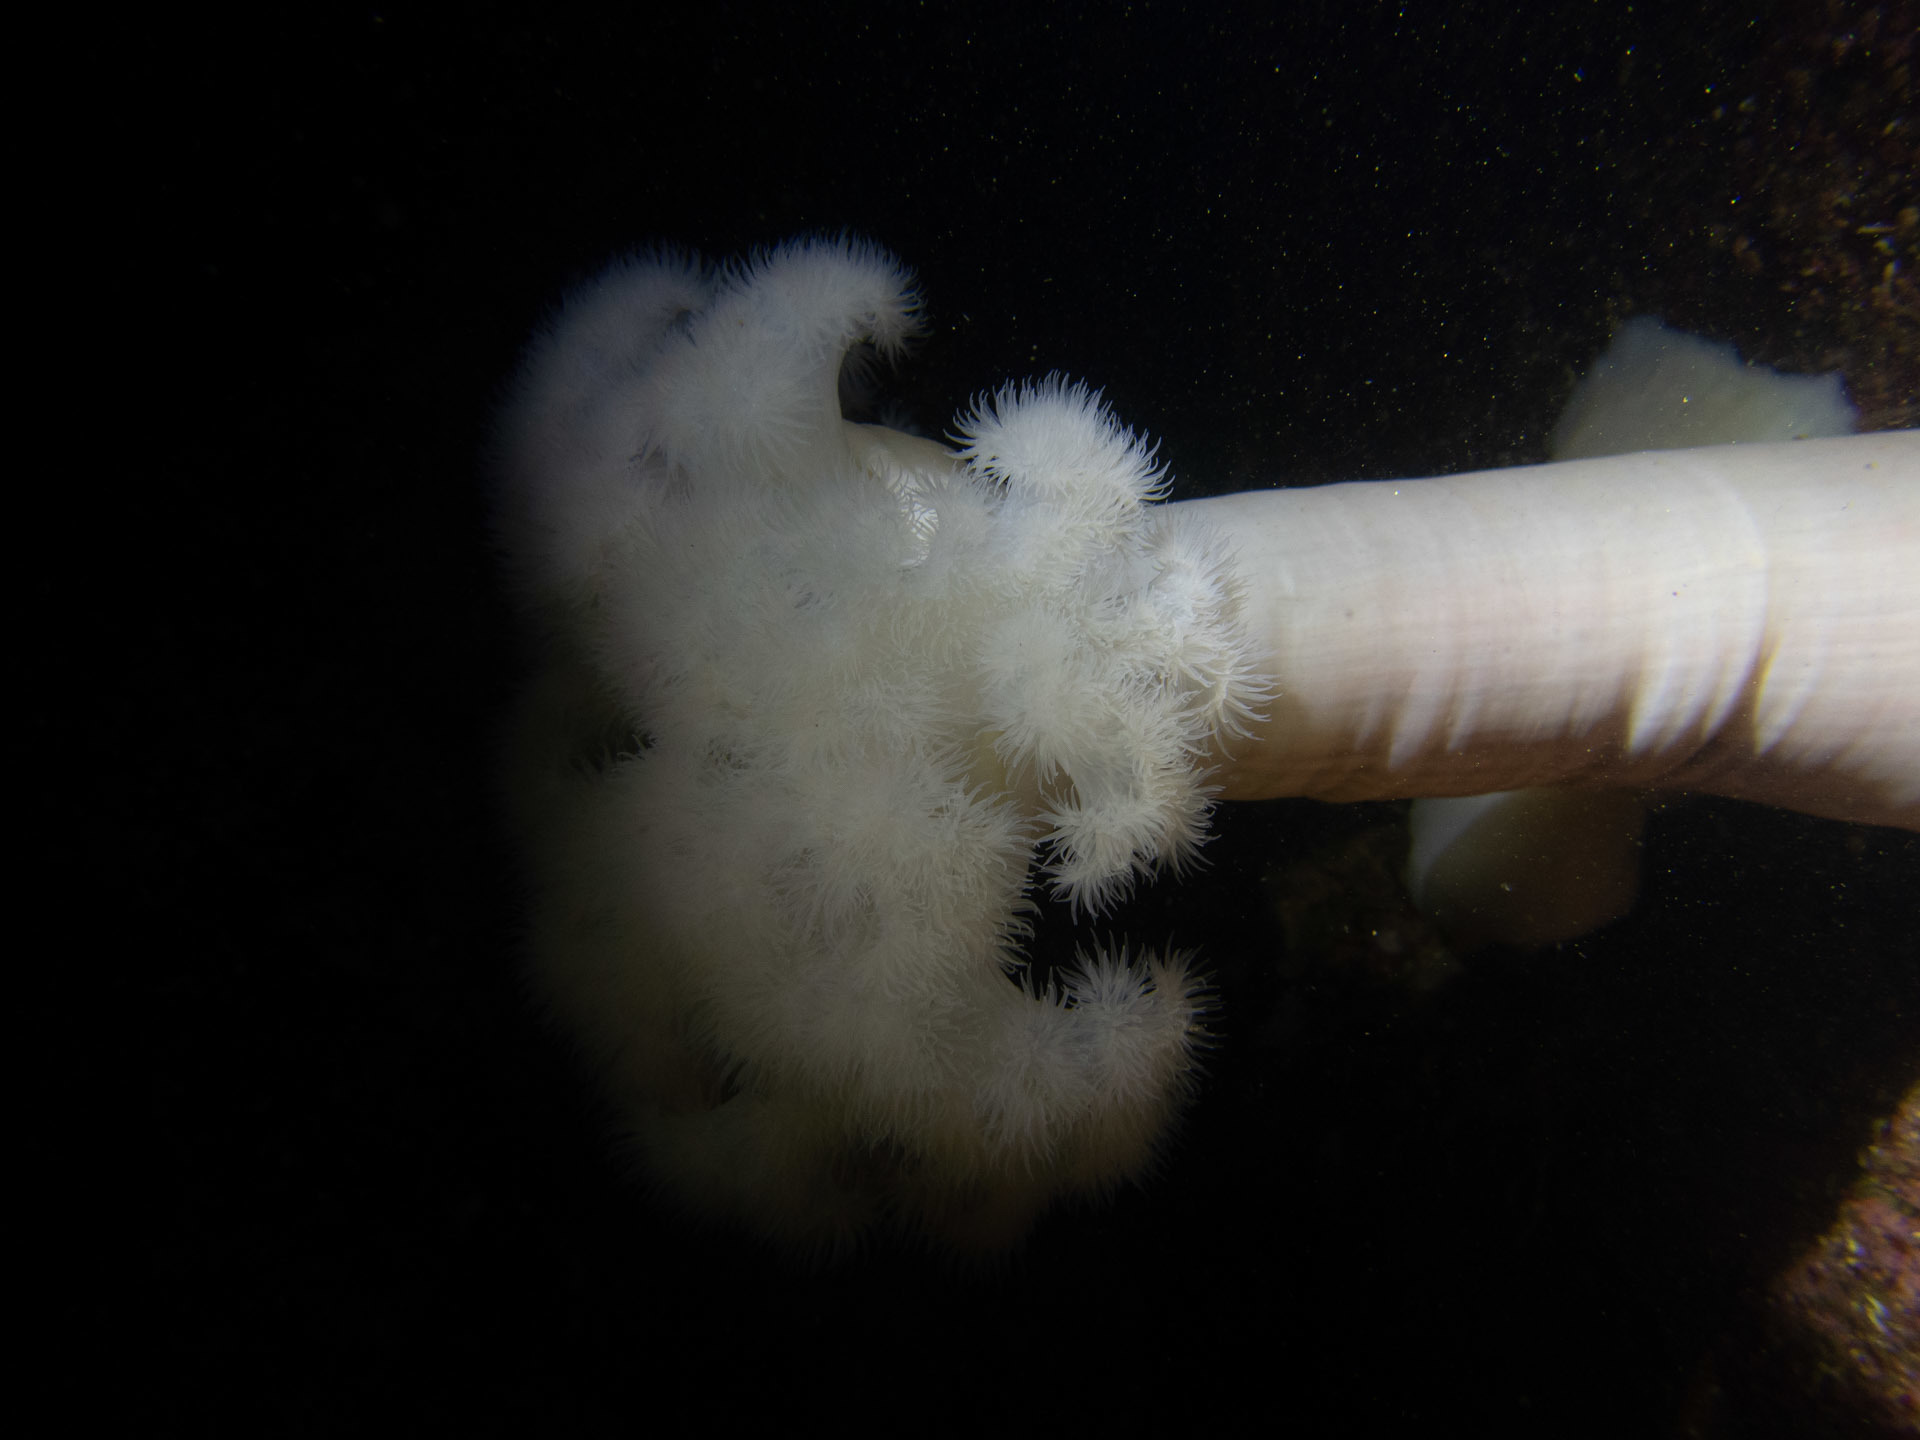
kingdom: Animalia
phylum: Cnidaria
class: Anthozoa
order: Actiniaria
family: Metridiidae
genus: Metridium
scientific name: Metridium farcimen
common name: Gigantic anemone
